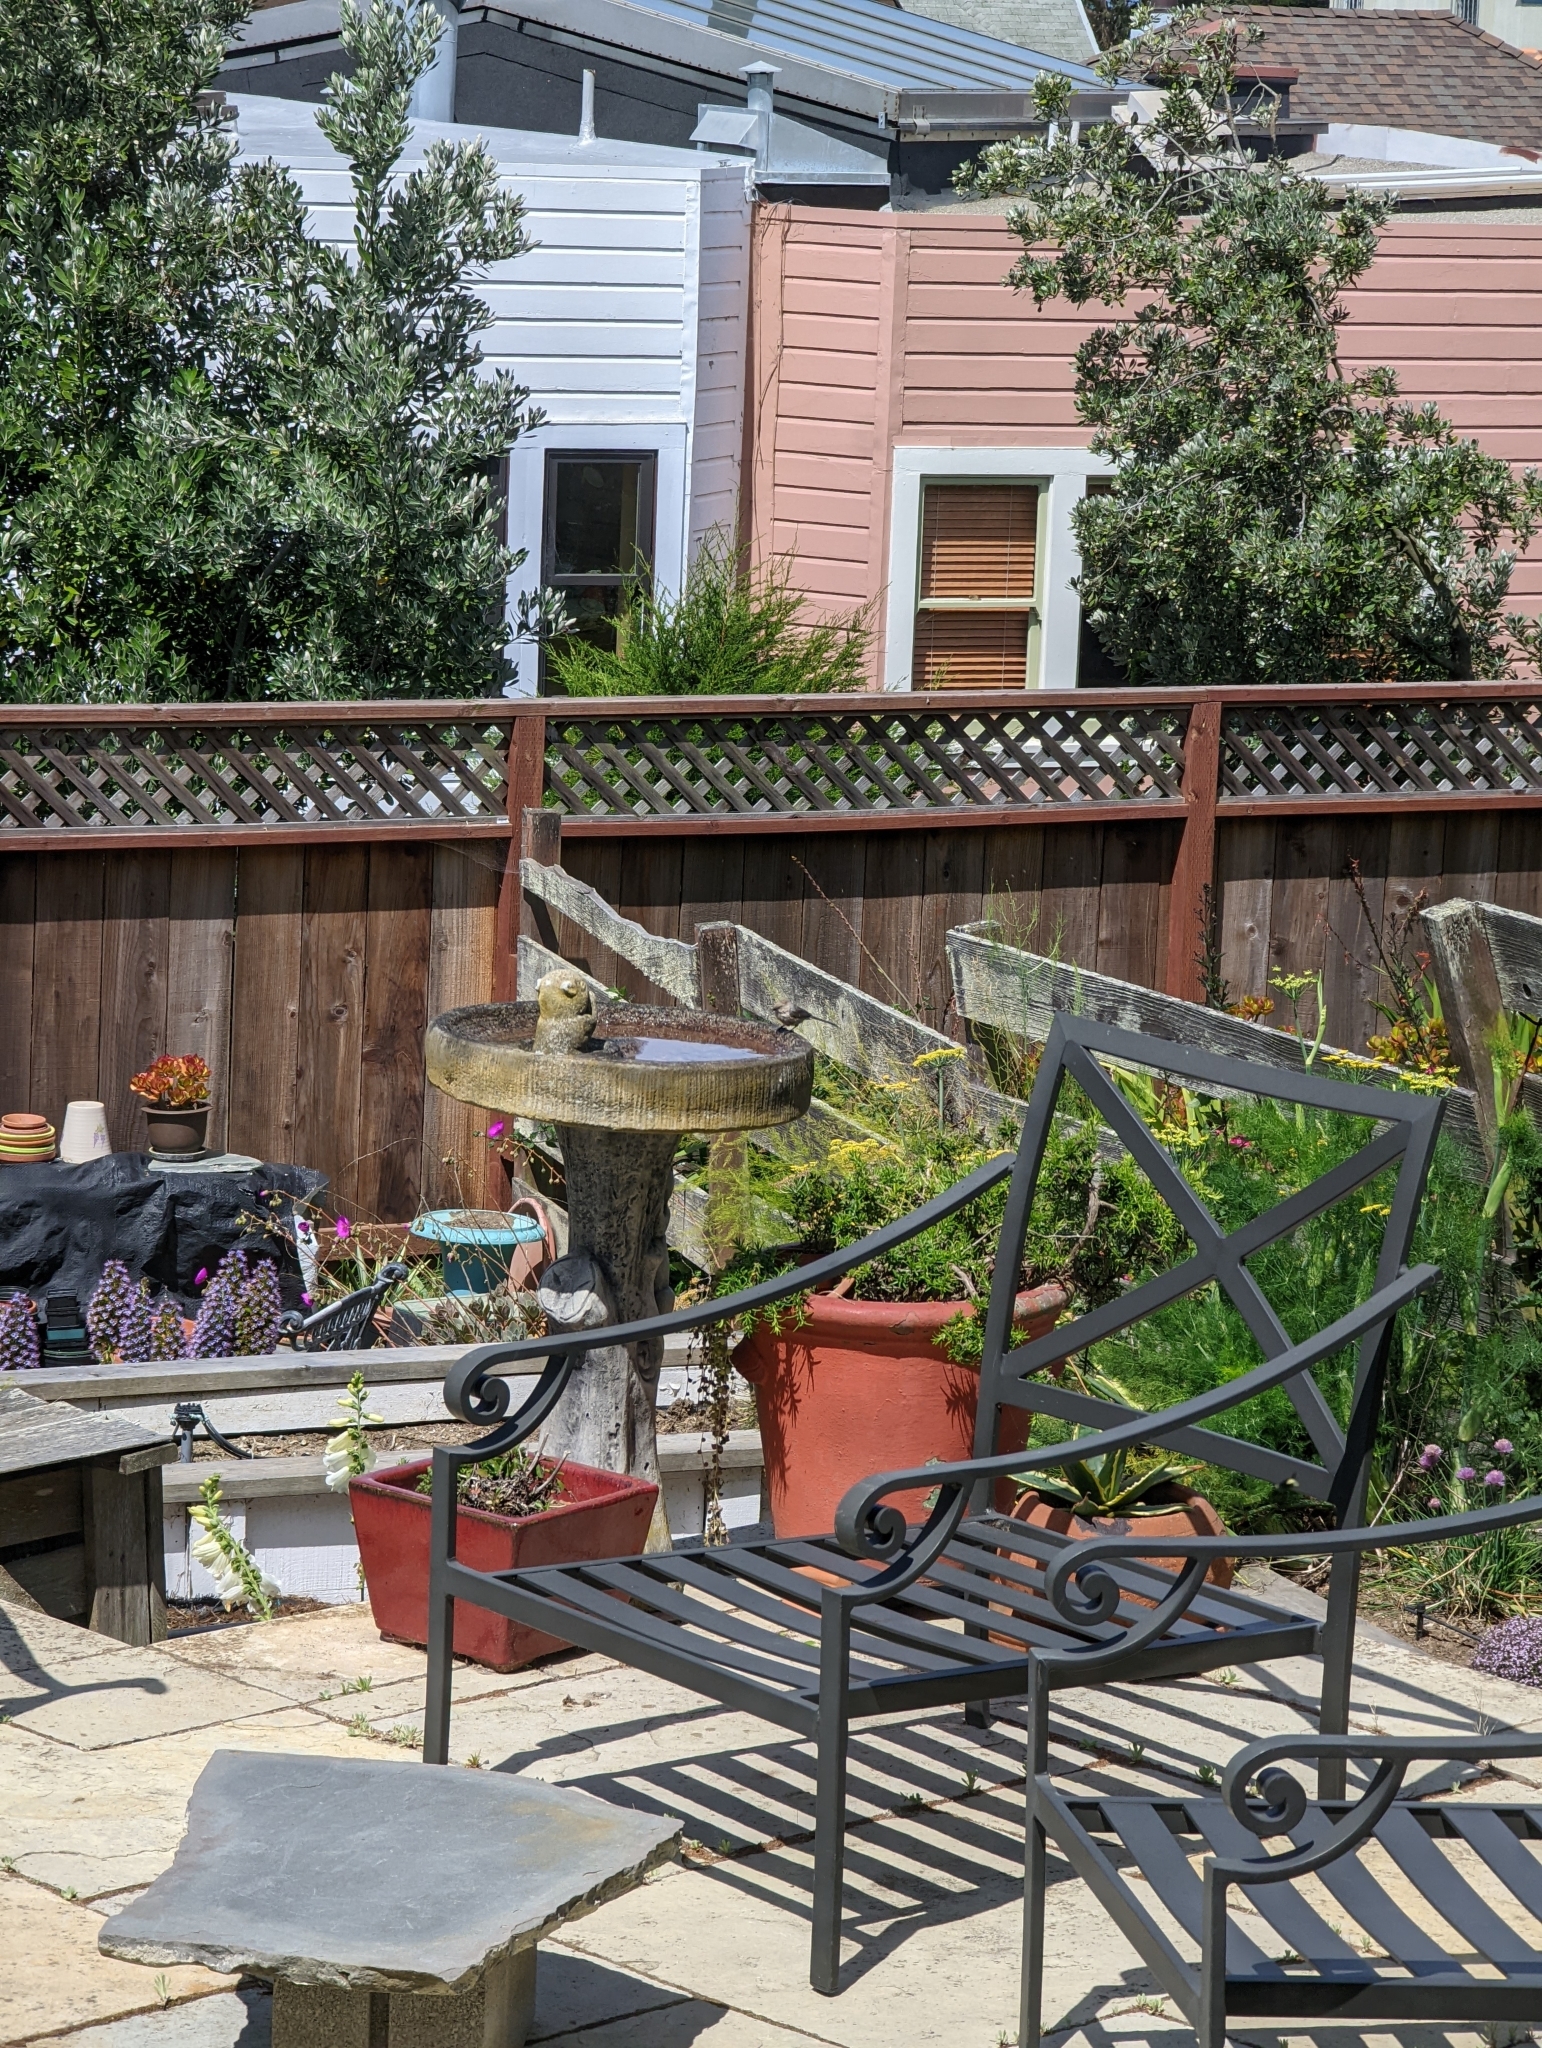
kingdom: Animalia
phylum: Chordata
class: Aves
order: Passeriformes
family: Aegithalidae
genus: Psaltriparus
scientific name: Psaltriparus minimus
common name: American bushtit
